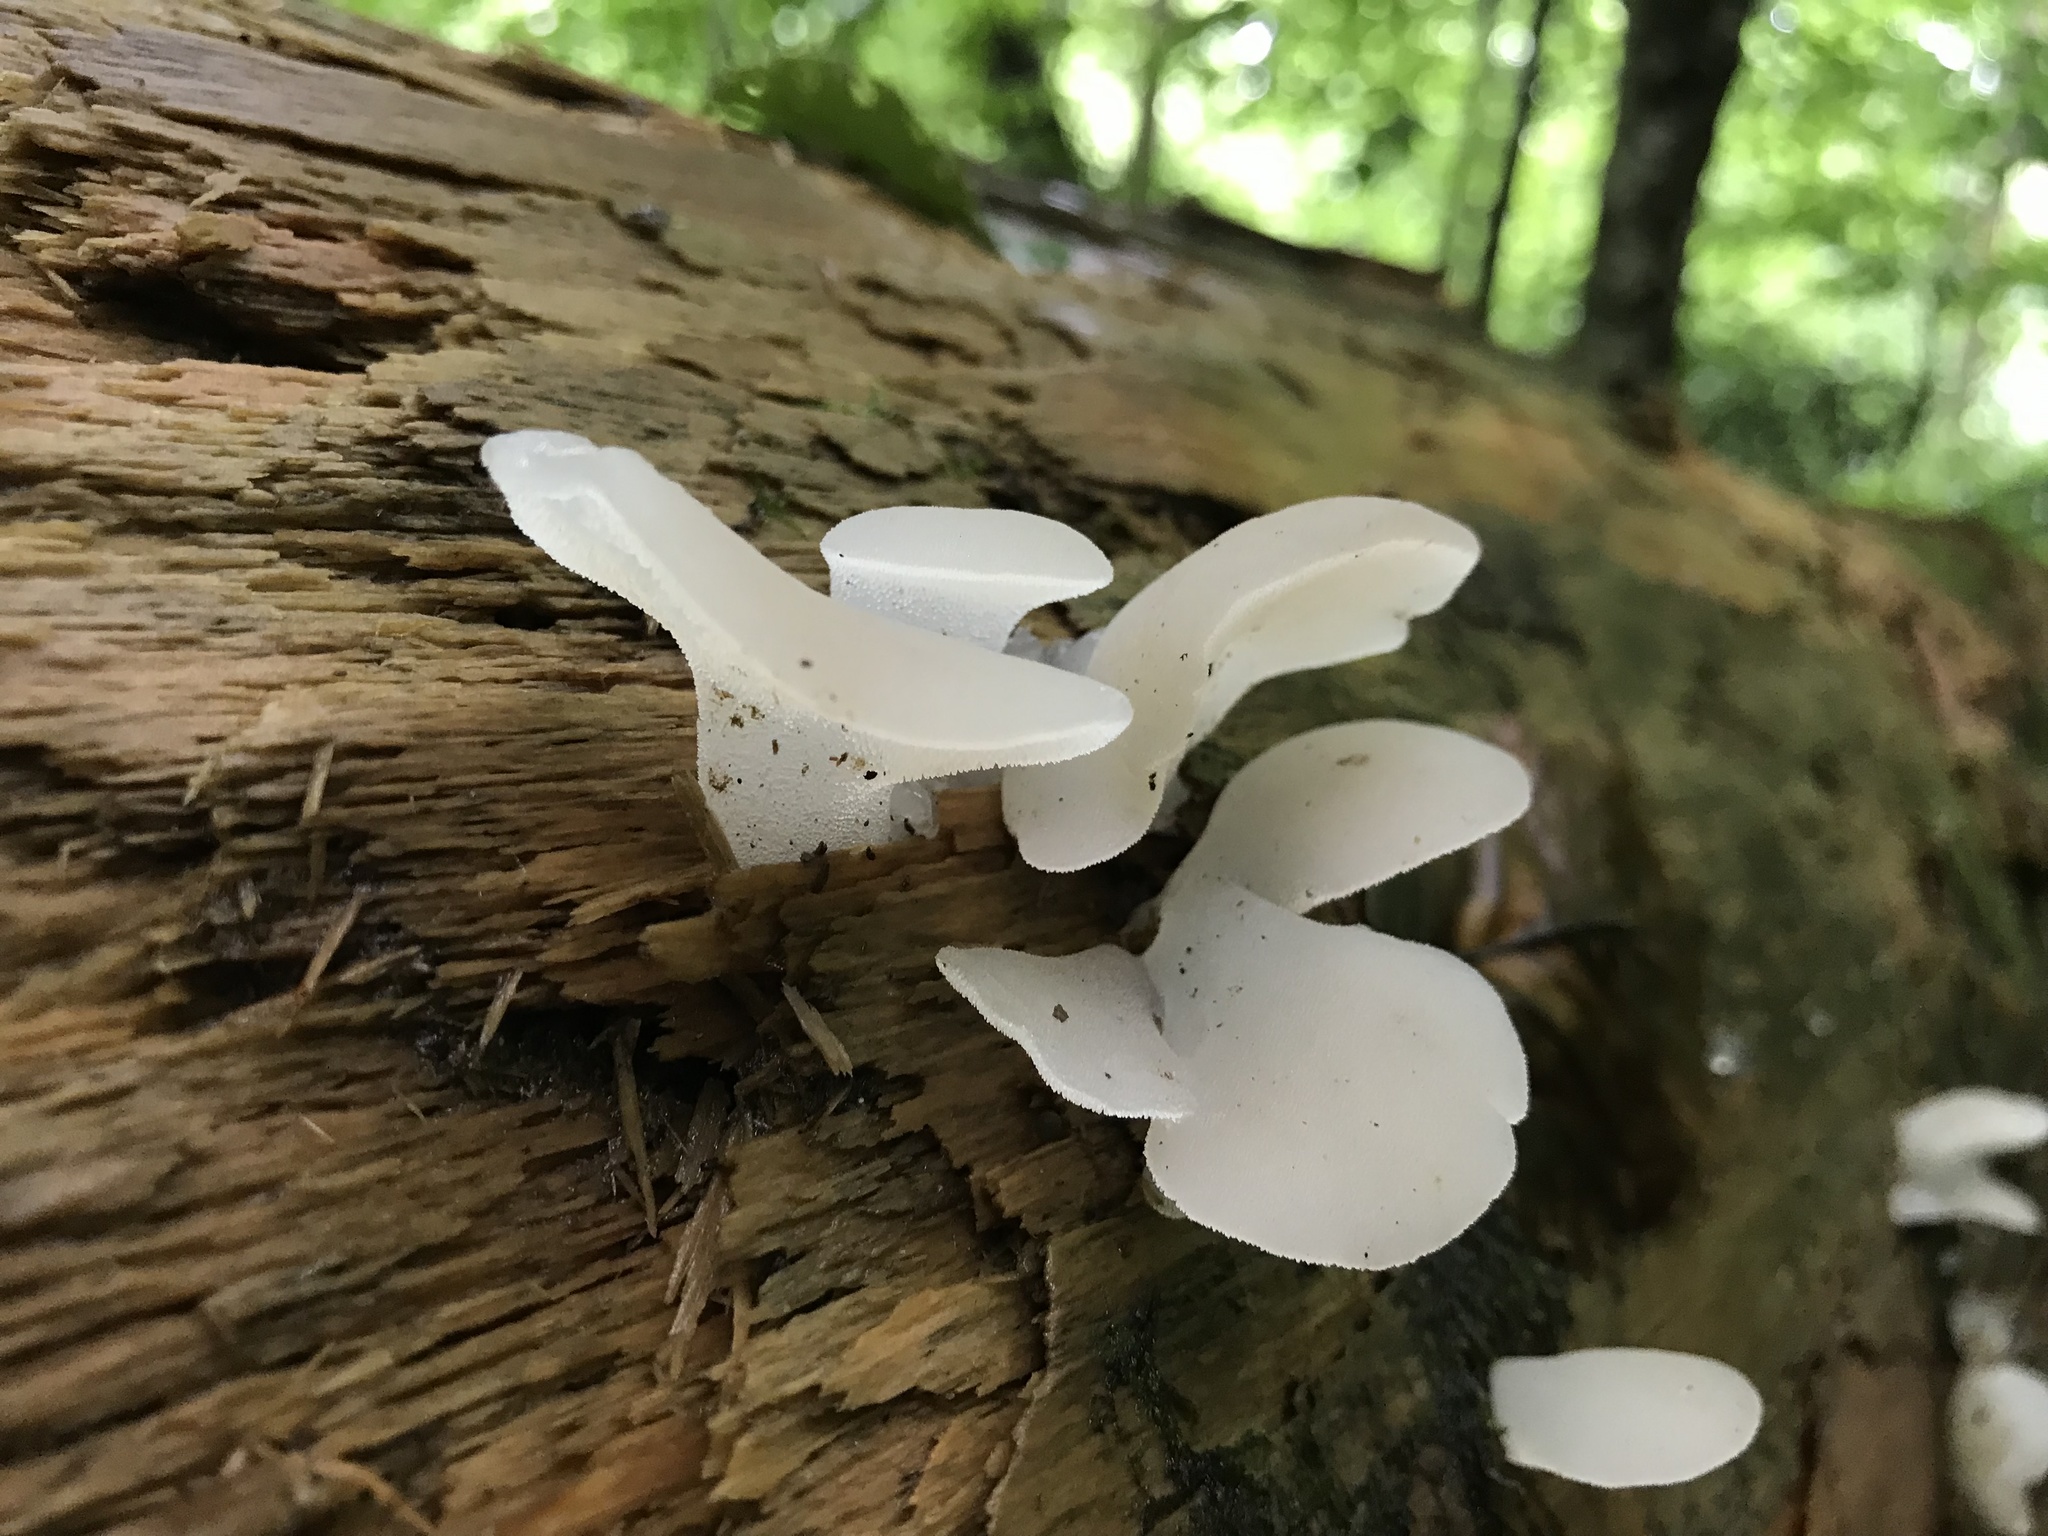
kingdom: Fungi
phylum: Basidiomycota
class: Agaricomycetes
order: Auriculariales
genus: Pseudohydnum
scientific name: Pseudohydnum gelatinosum
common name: Jelly tongue
